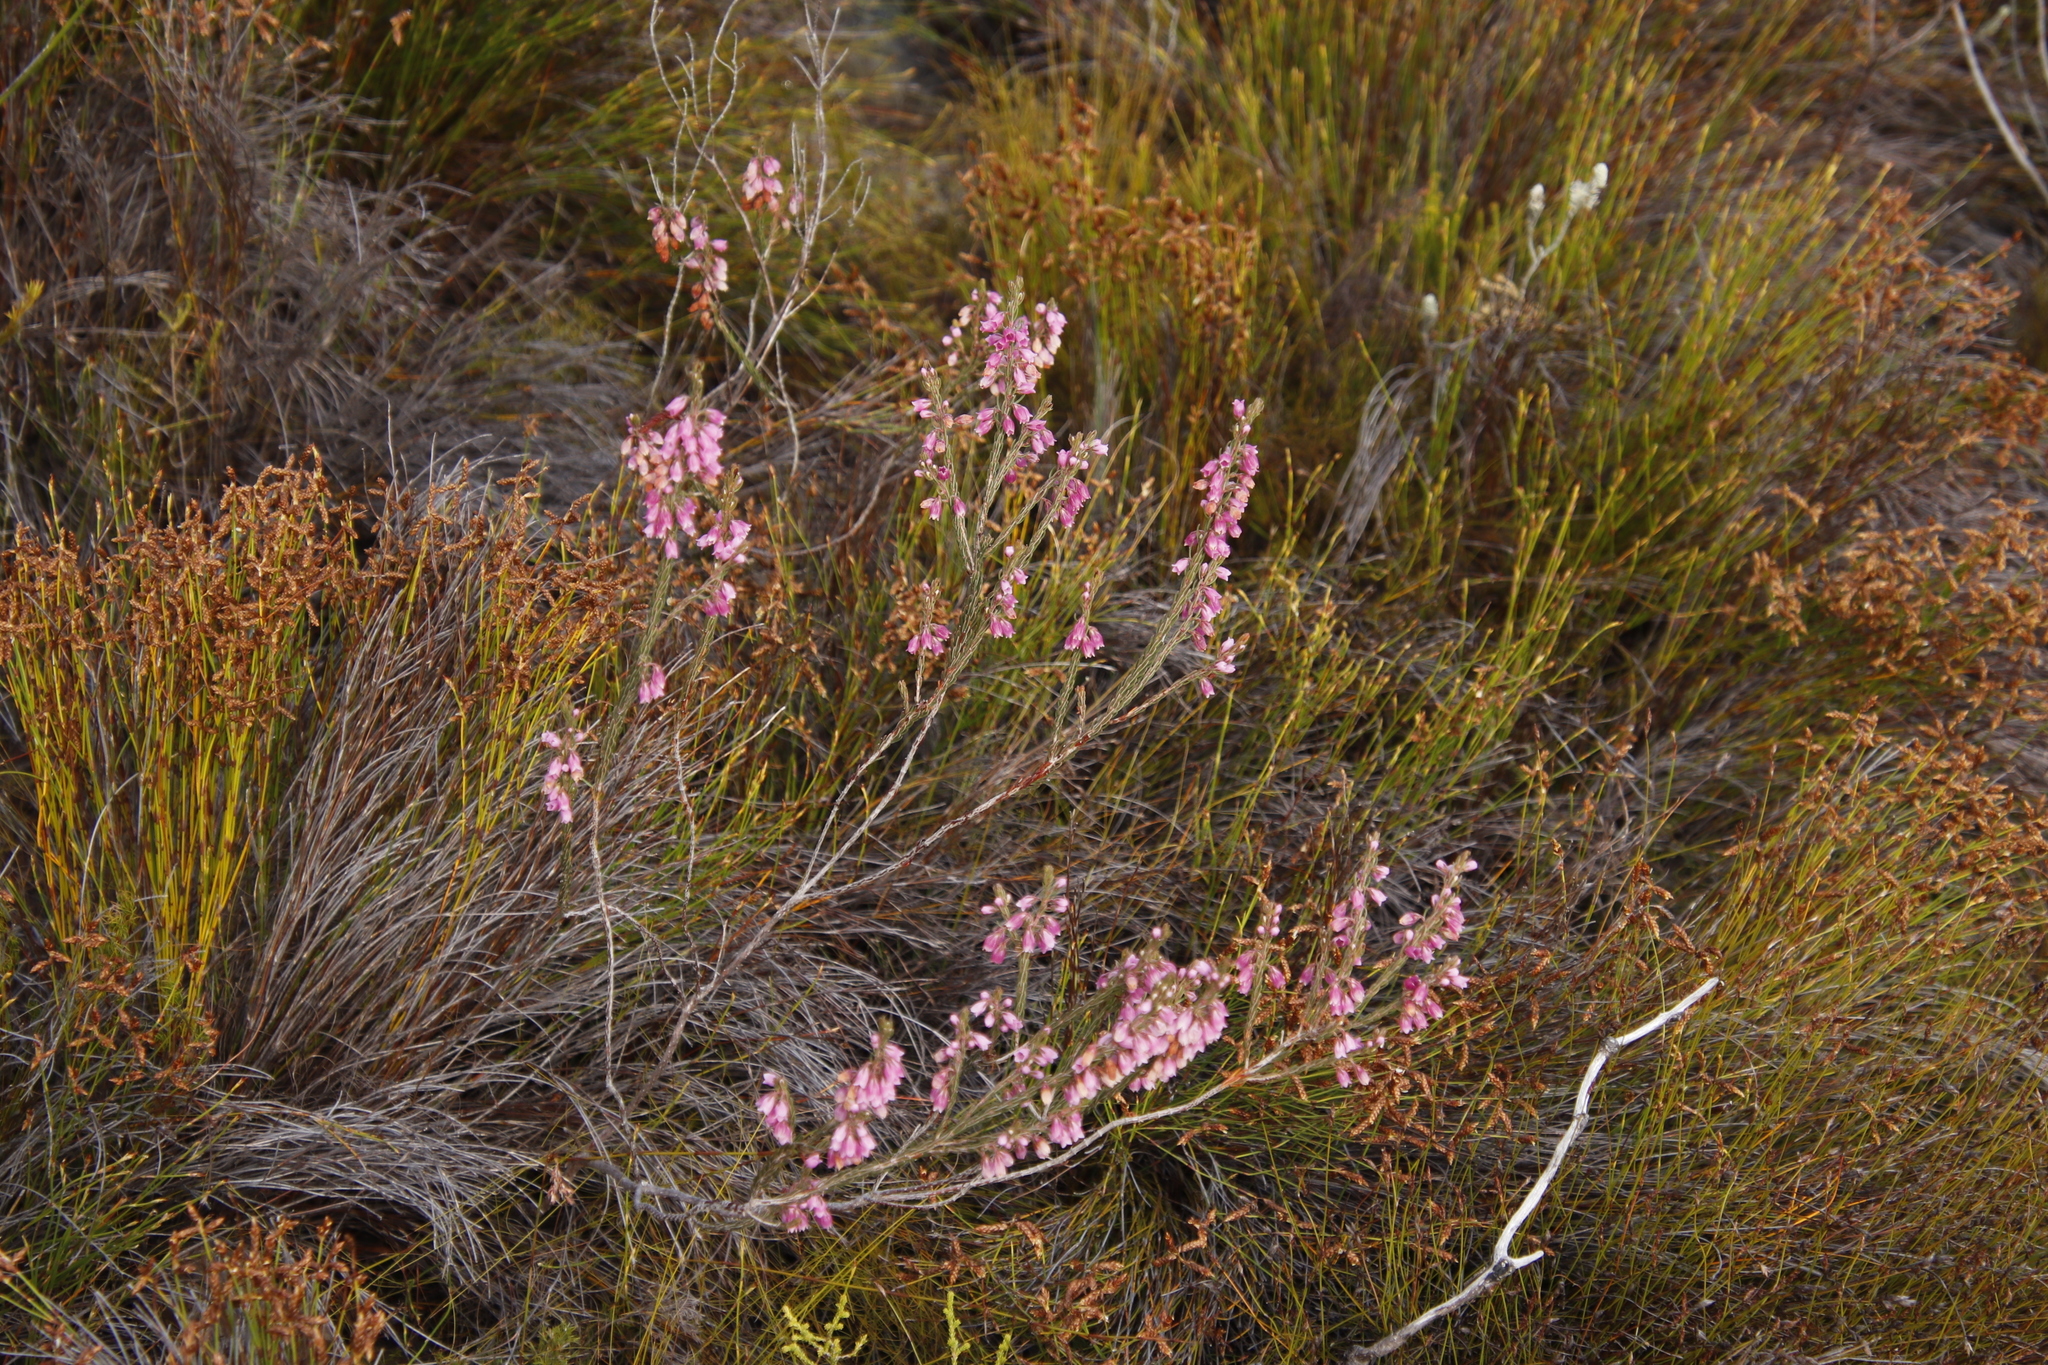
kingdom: Plantae
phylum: Tracheophyta
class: Magnoliopsida
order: Ericales
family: Ericaceae
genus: Erica
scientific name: Erica viscaria
